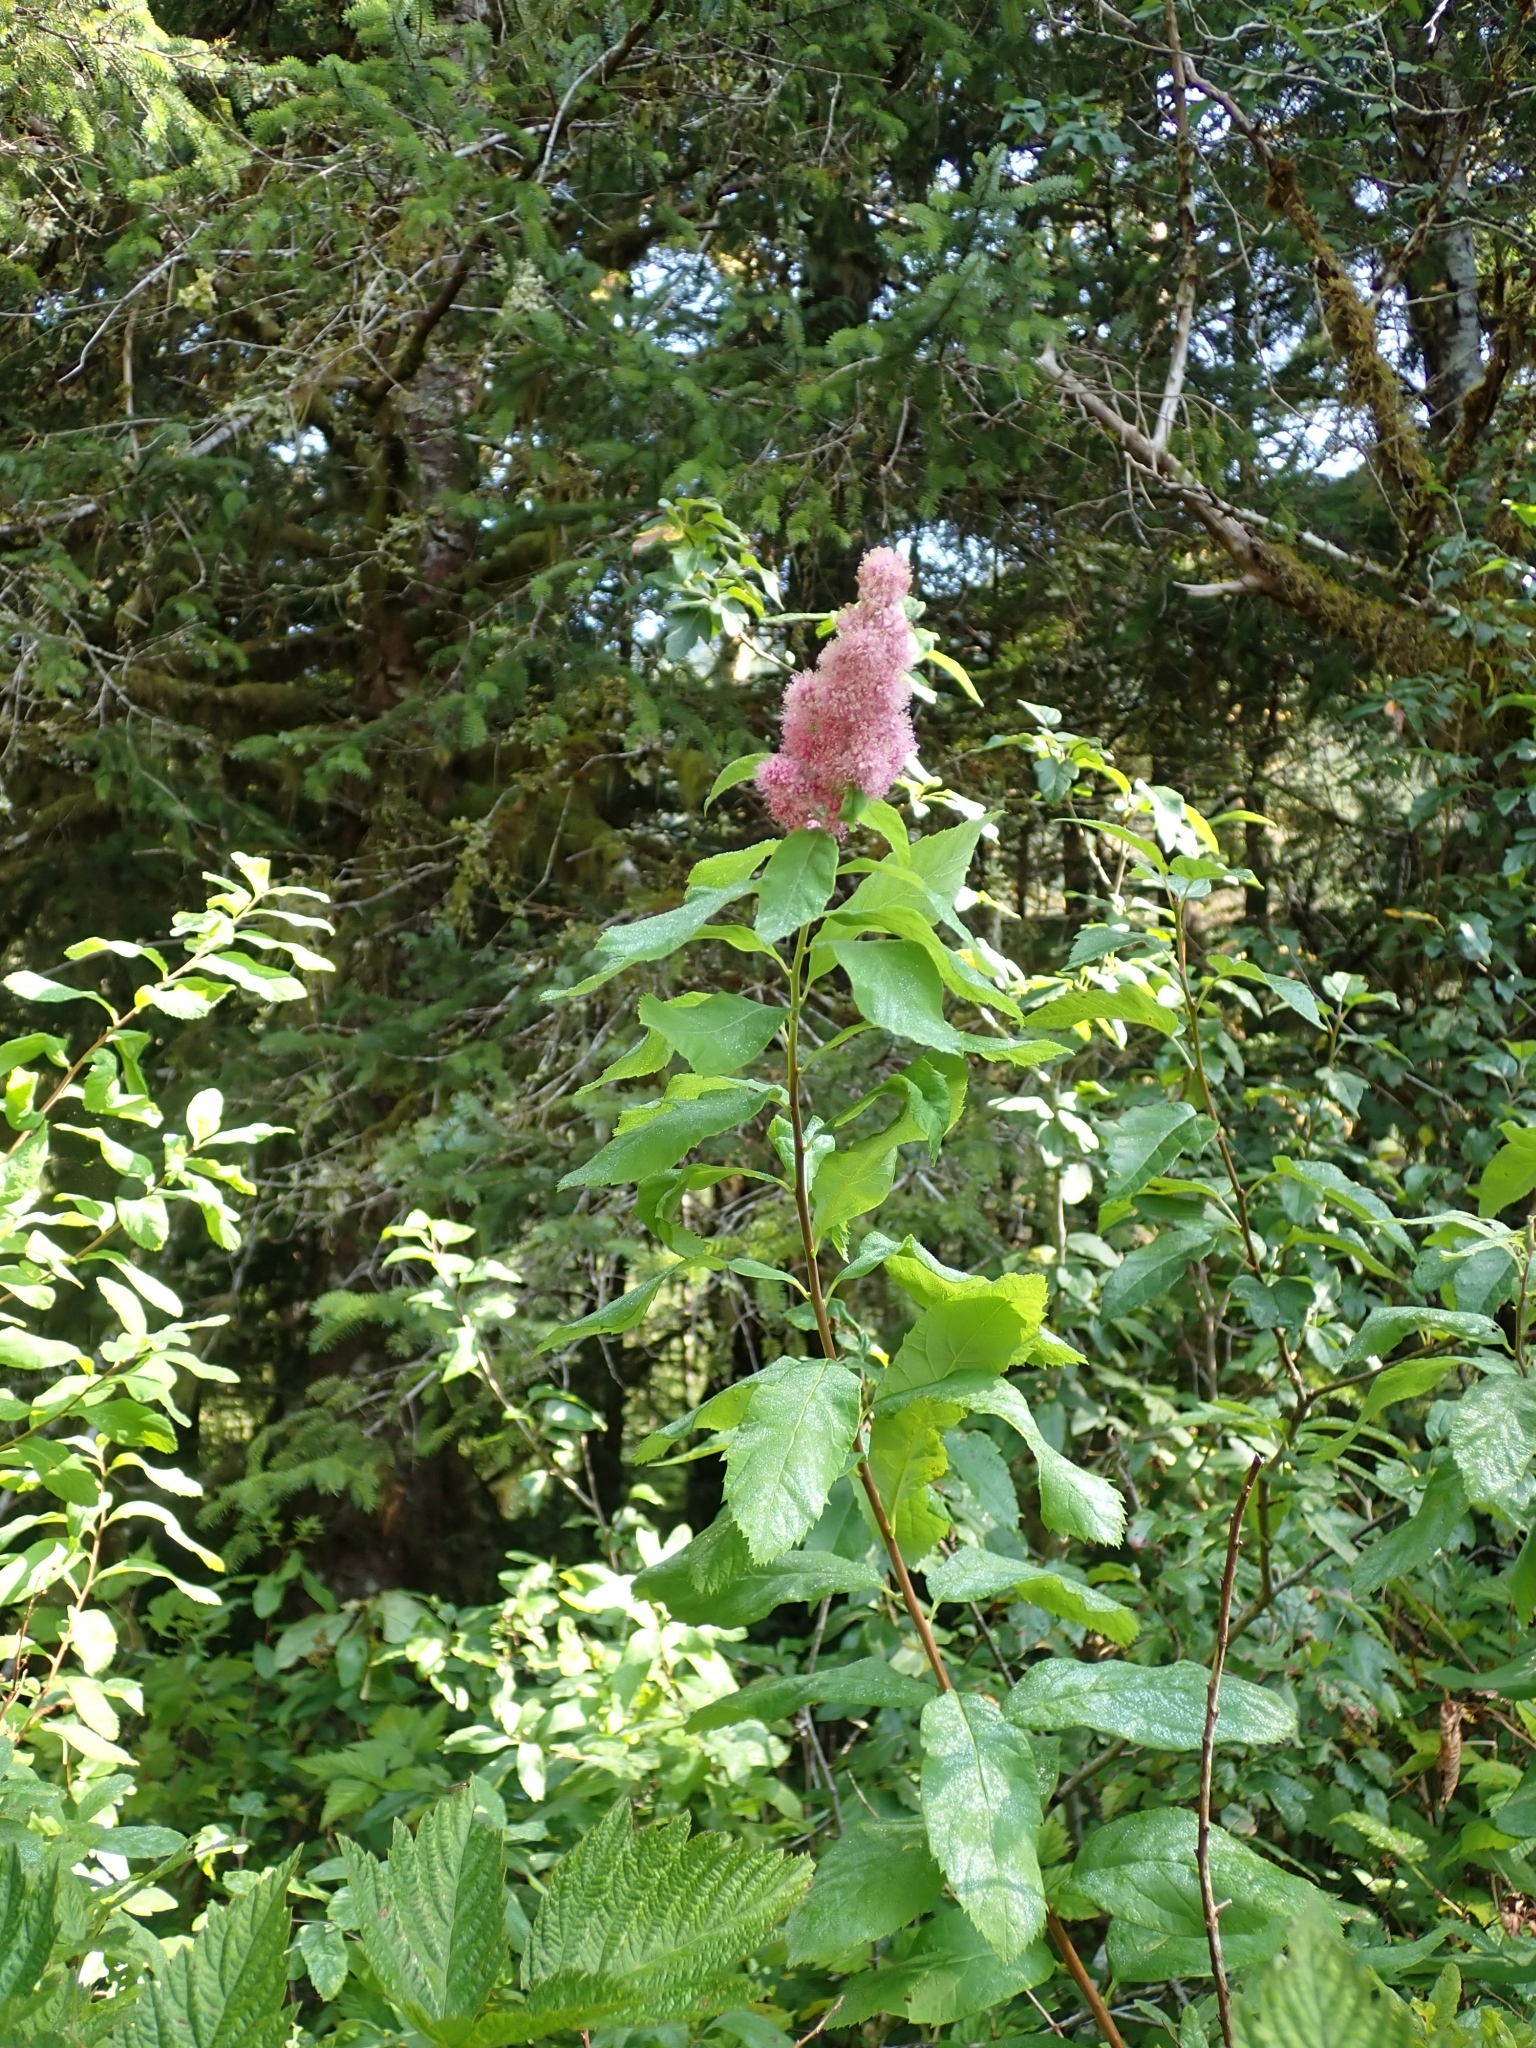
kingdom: Plantae
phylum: Tracheophyta
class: Magnoliopsida
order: Rosales
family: Rosaceae
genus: Spiraea
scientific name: Spiraea douglasii
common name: Steeplebush
